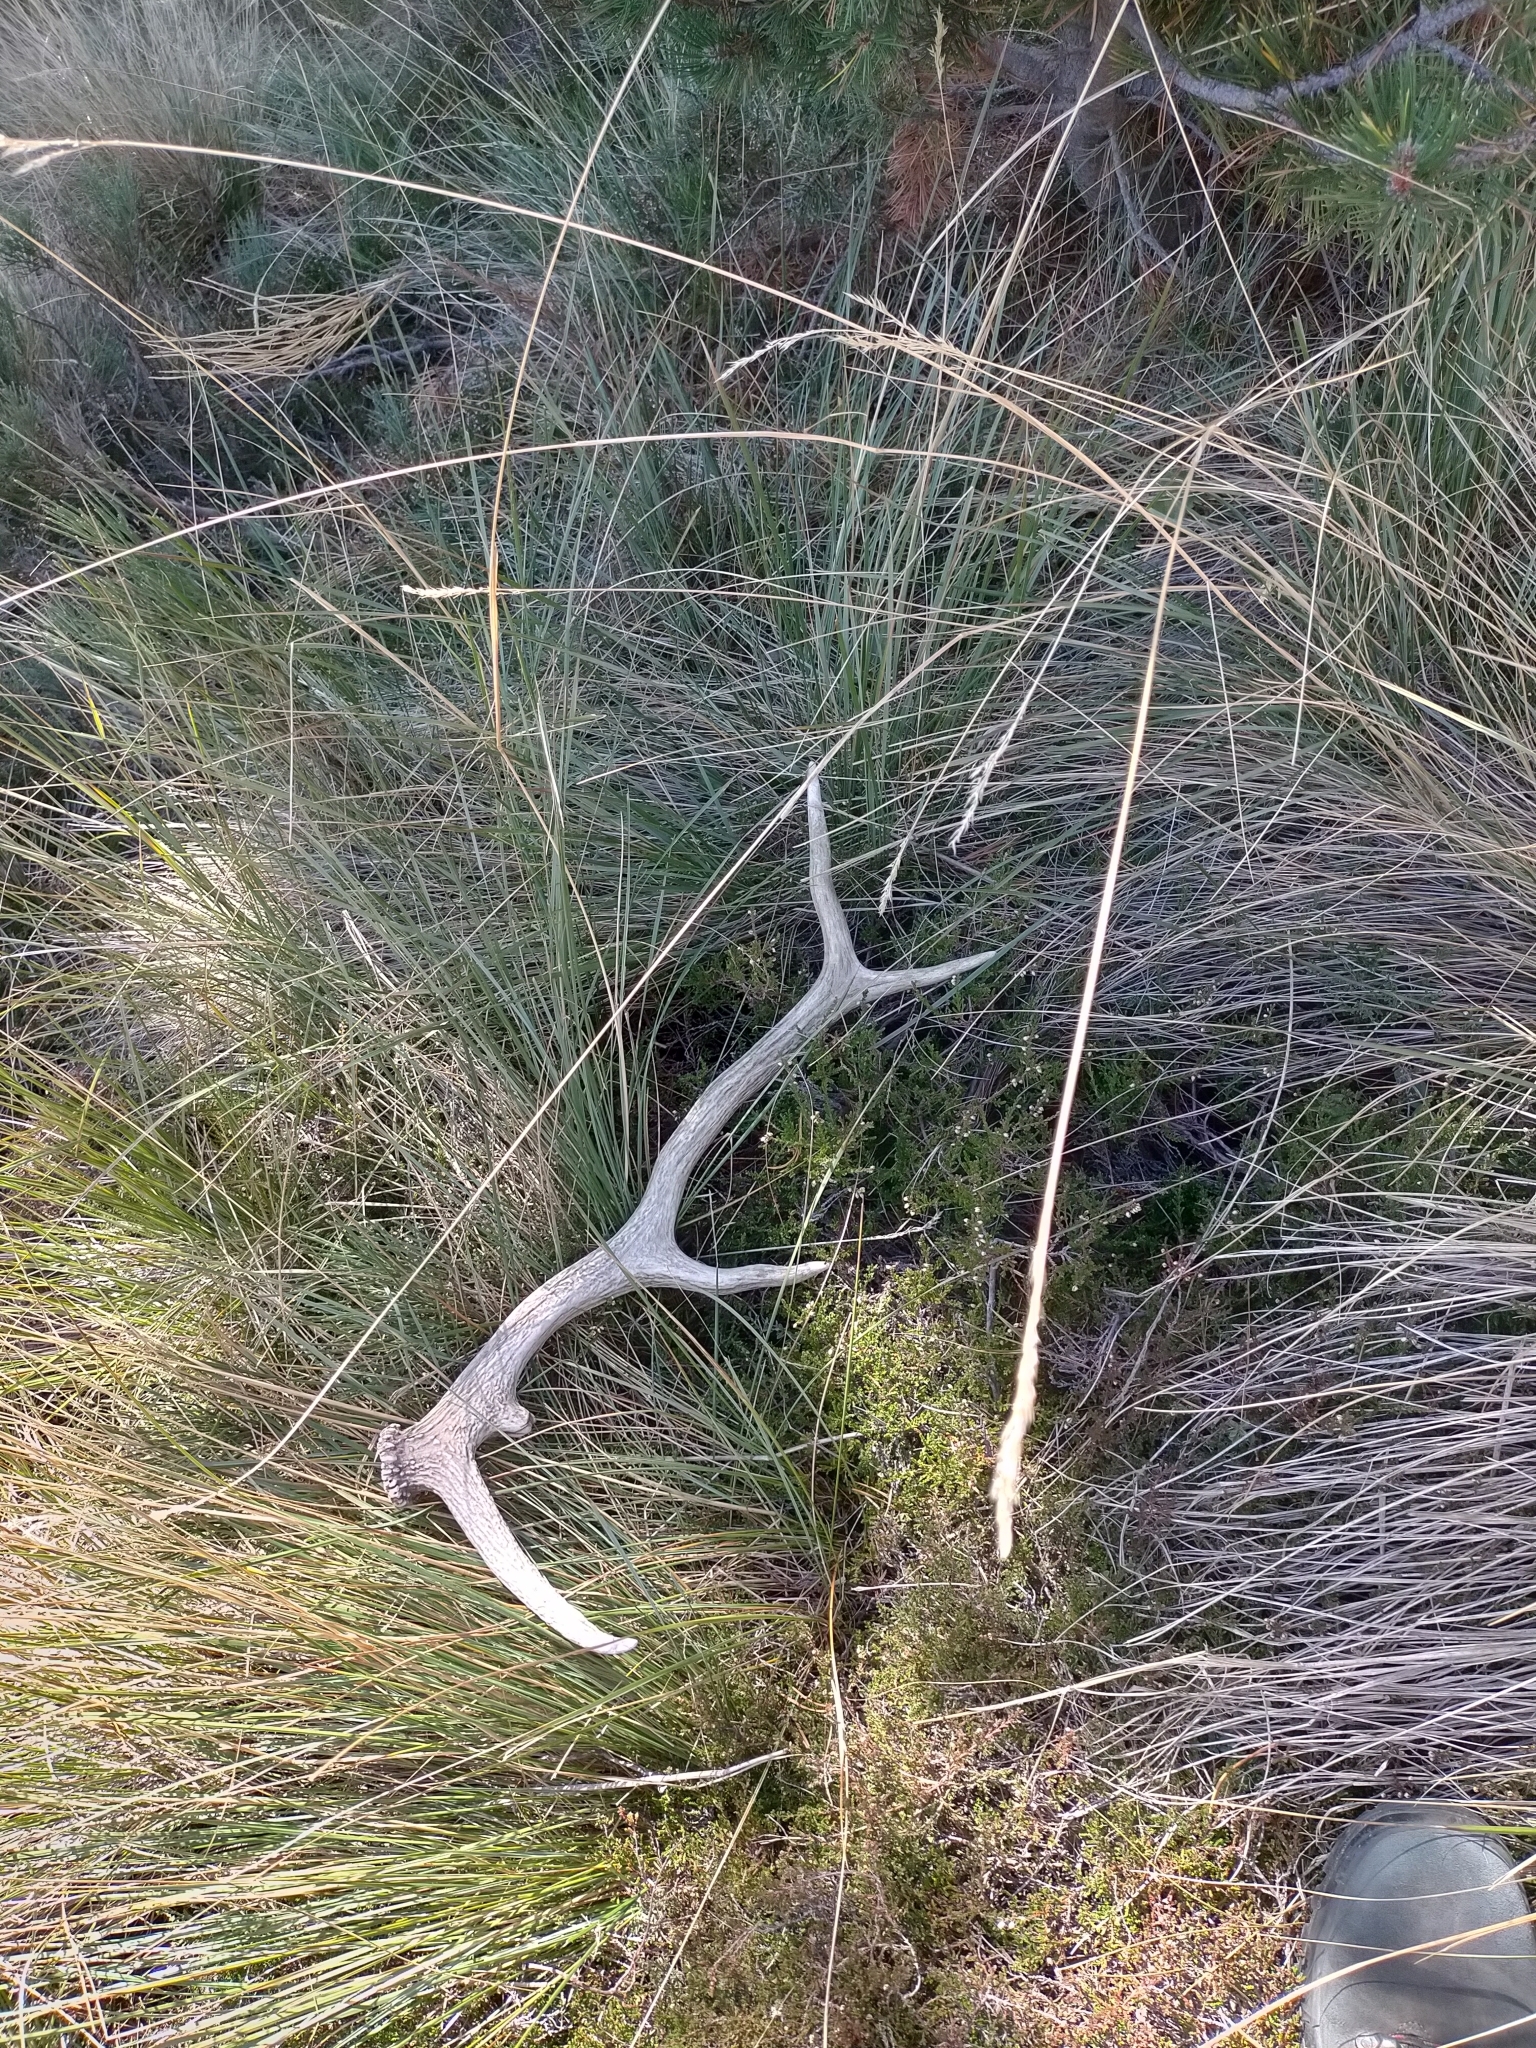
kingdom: Animalia
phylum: Chordata
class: Mammalia
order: Artiodactyla
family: Cervidae
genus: Cervus
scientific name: Cervus elaphus
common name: Red deer
